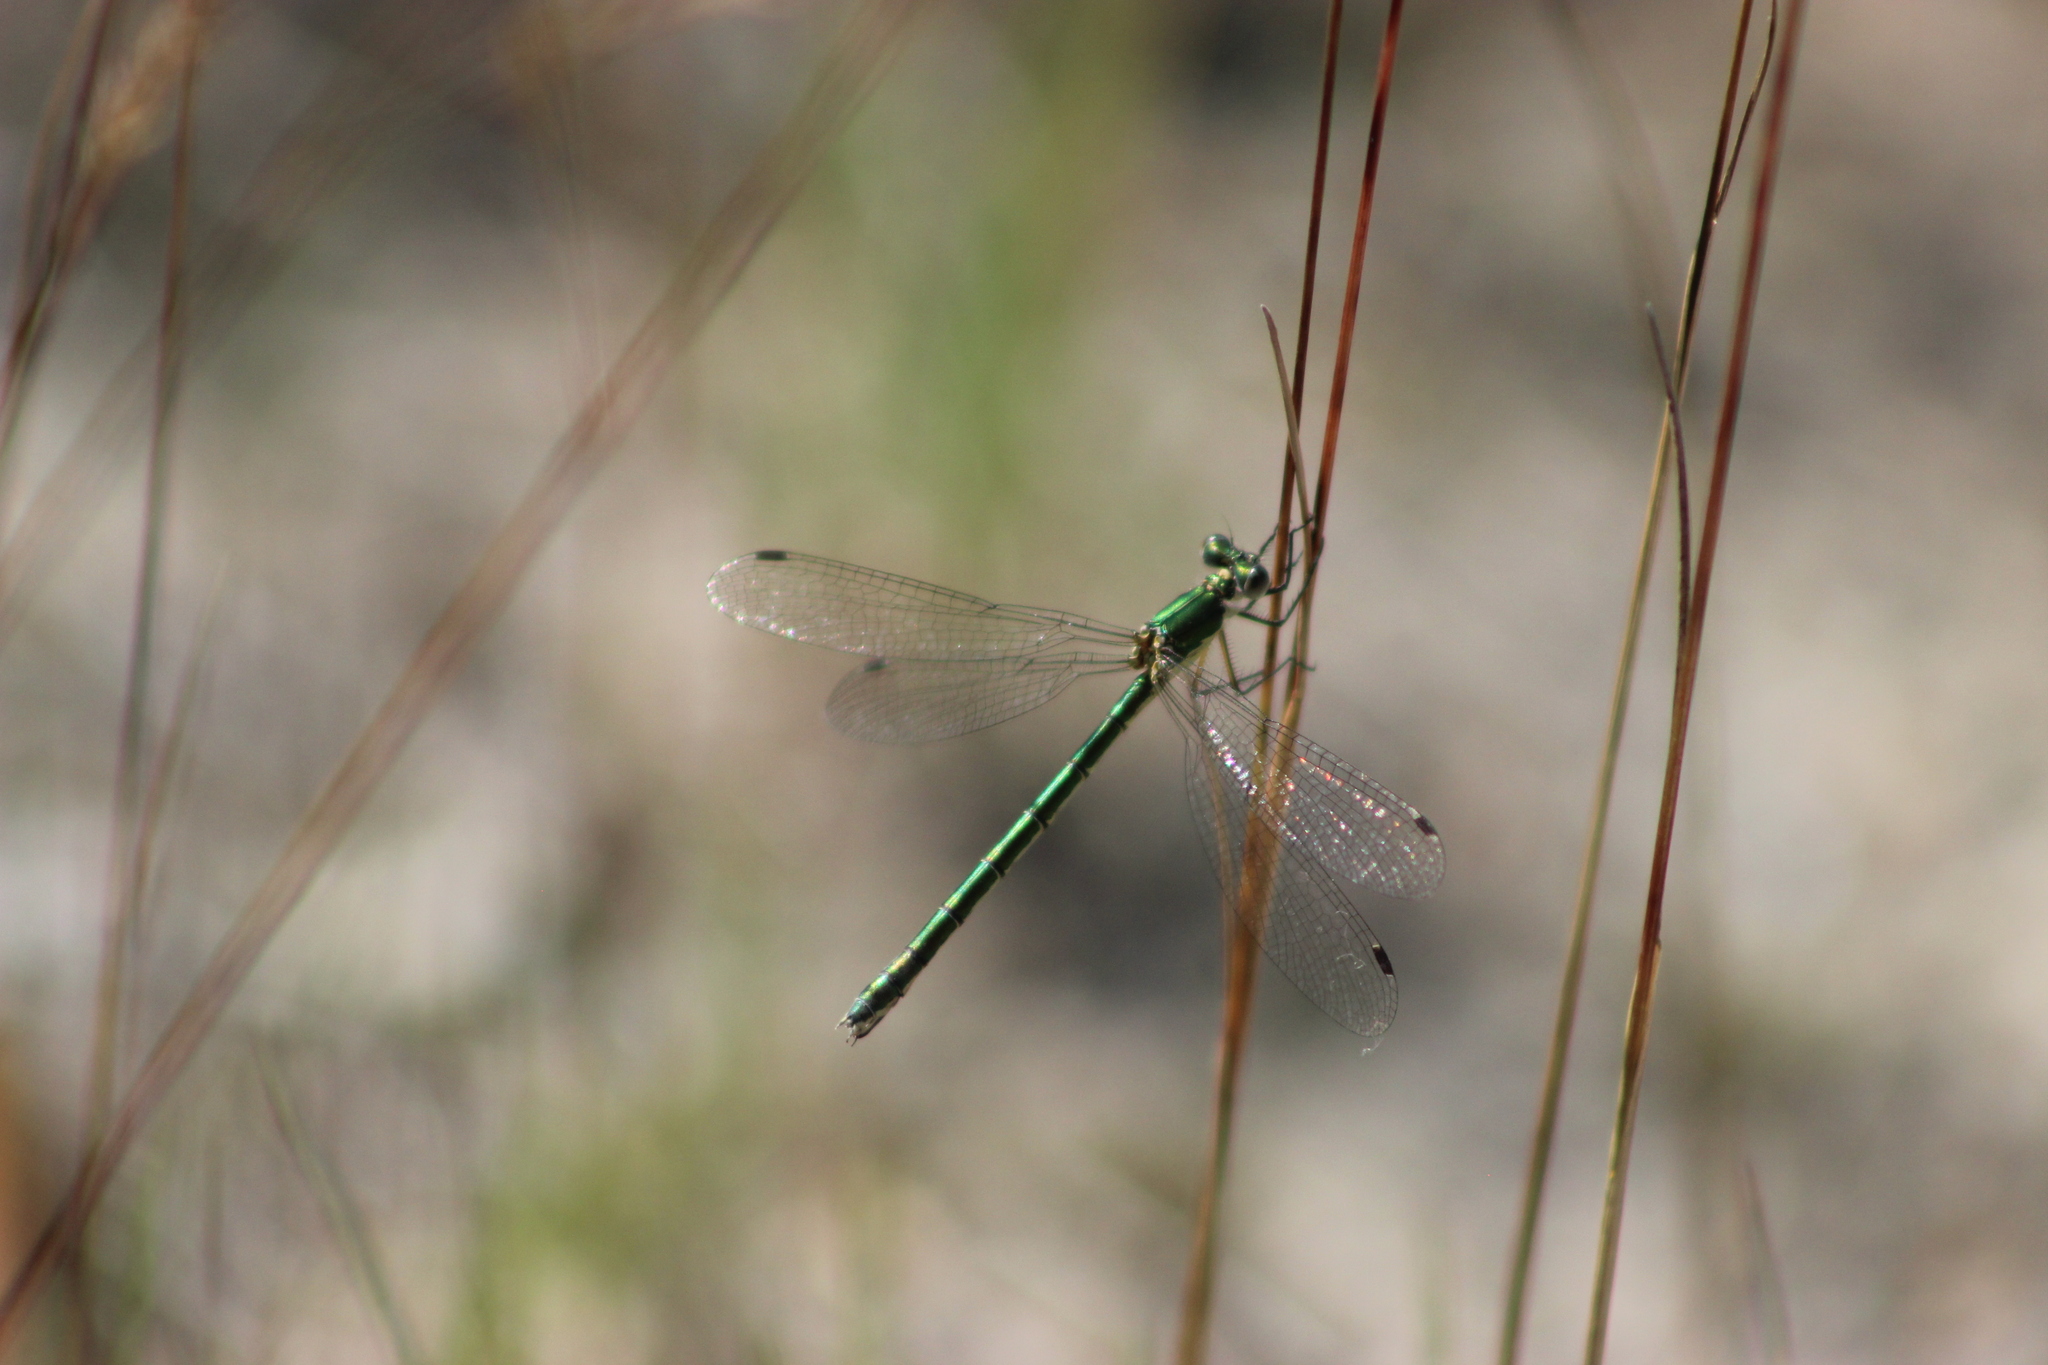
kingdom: Animalia
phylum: Arthropoda
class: Insecta
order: Odonata
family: Lestidae
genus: Lestes
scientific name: Lestes dryas
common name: Scarce emerald damselfly
